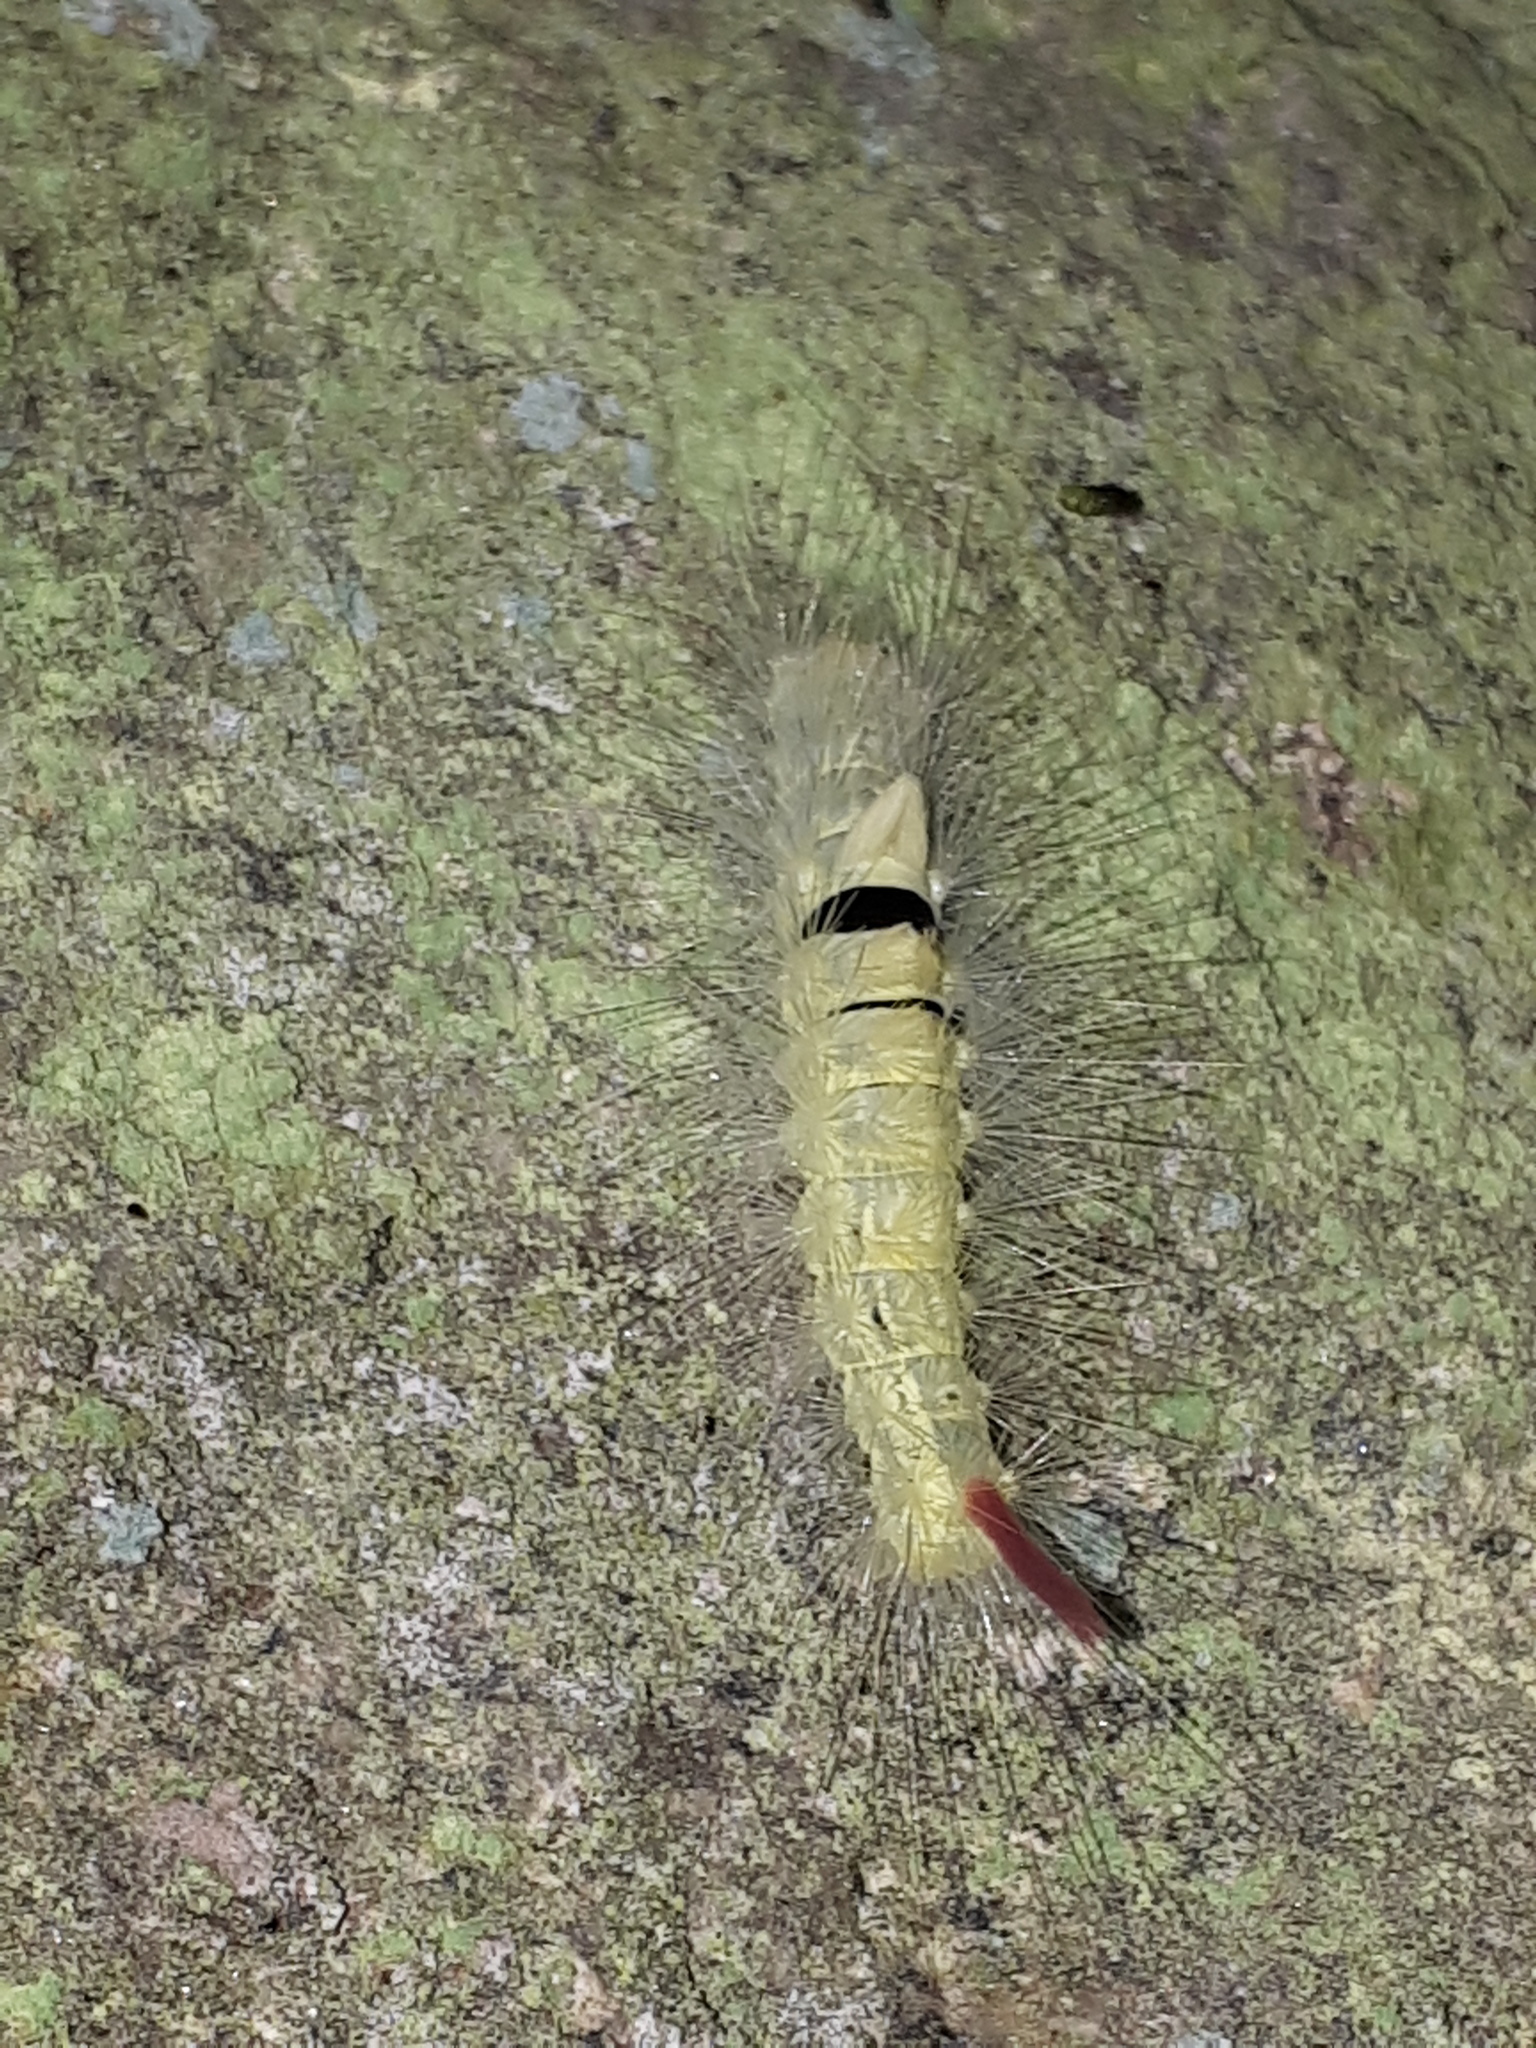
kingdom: Animalia
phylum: Arthropoda
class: Insecta
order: Lepidoptera
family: Erebidae
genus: Calliteara
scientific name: Calliteara pudibunda
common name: Pale tussock
